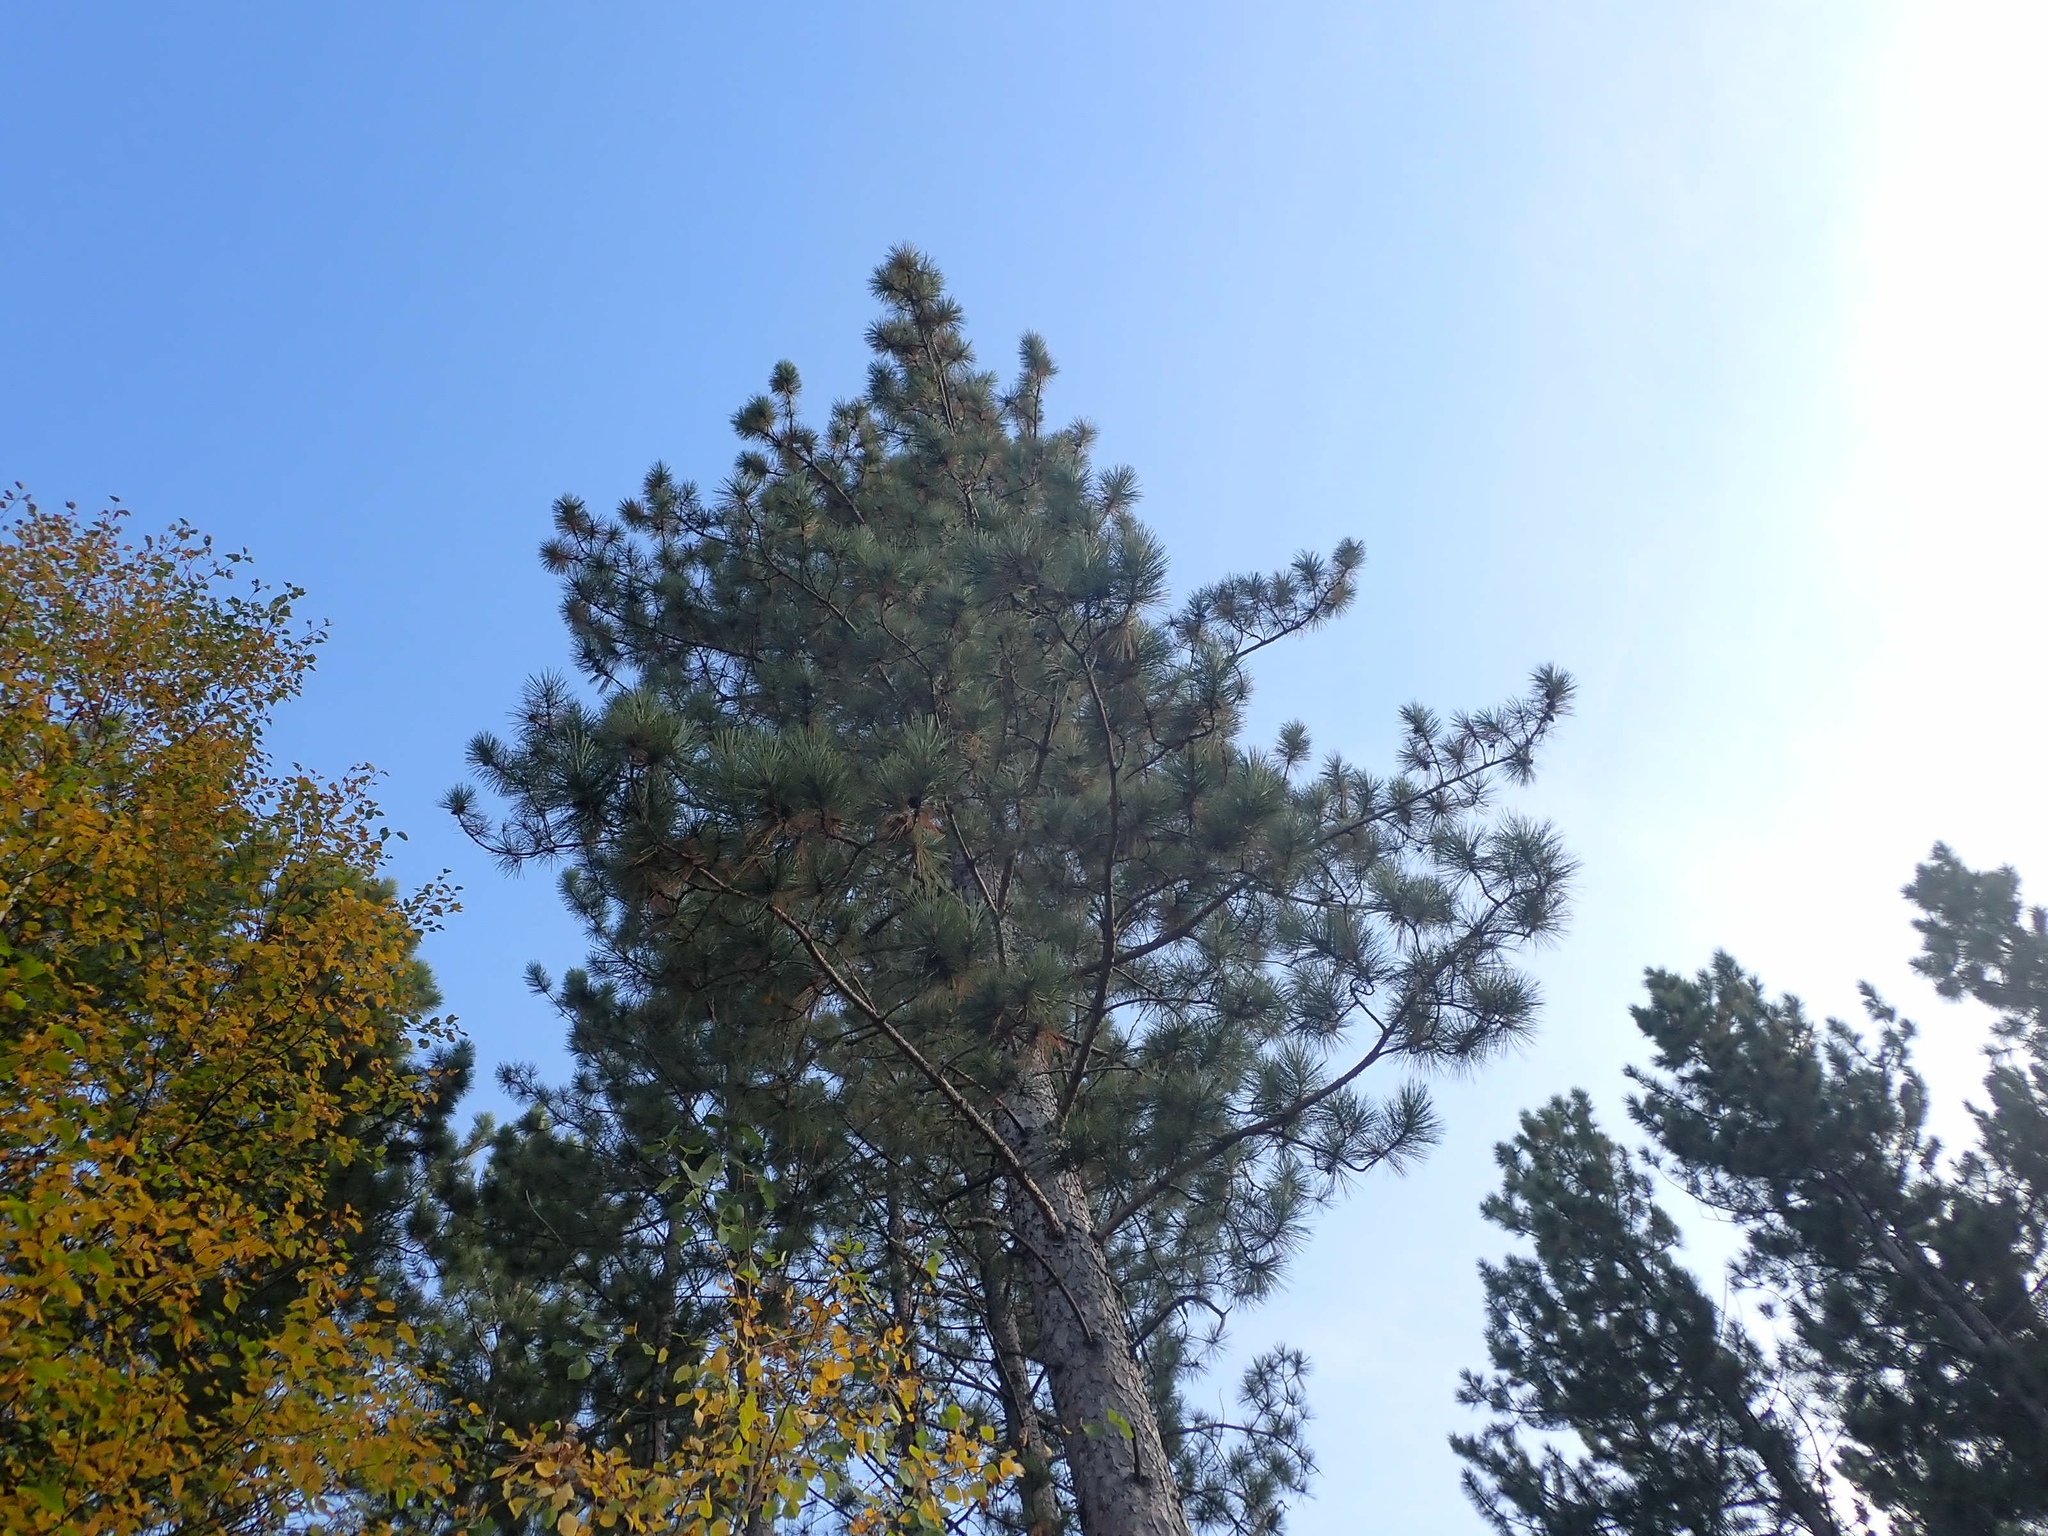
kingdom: Plantae
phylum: Tracheophyta
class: Pinopsida
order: Pinales
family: Pinaceae
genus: Pinus
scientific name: Pinus resinosa
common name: Norway pine
